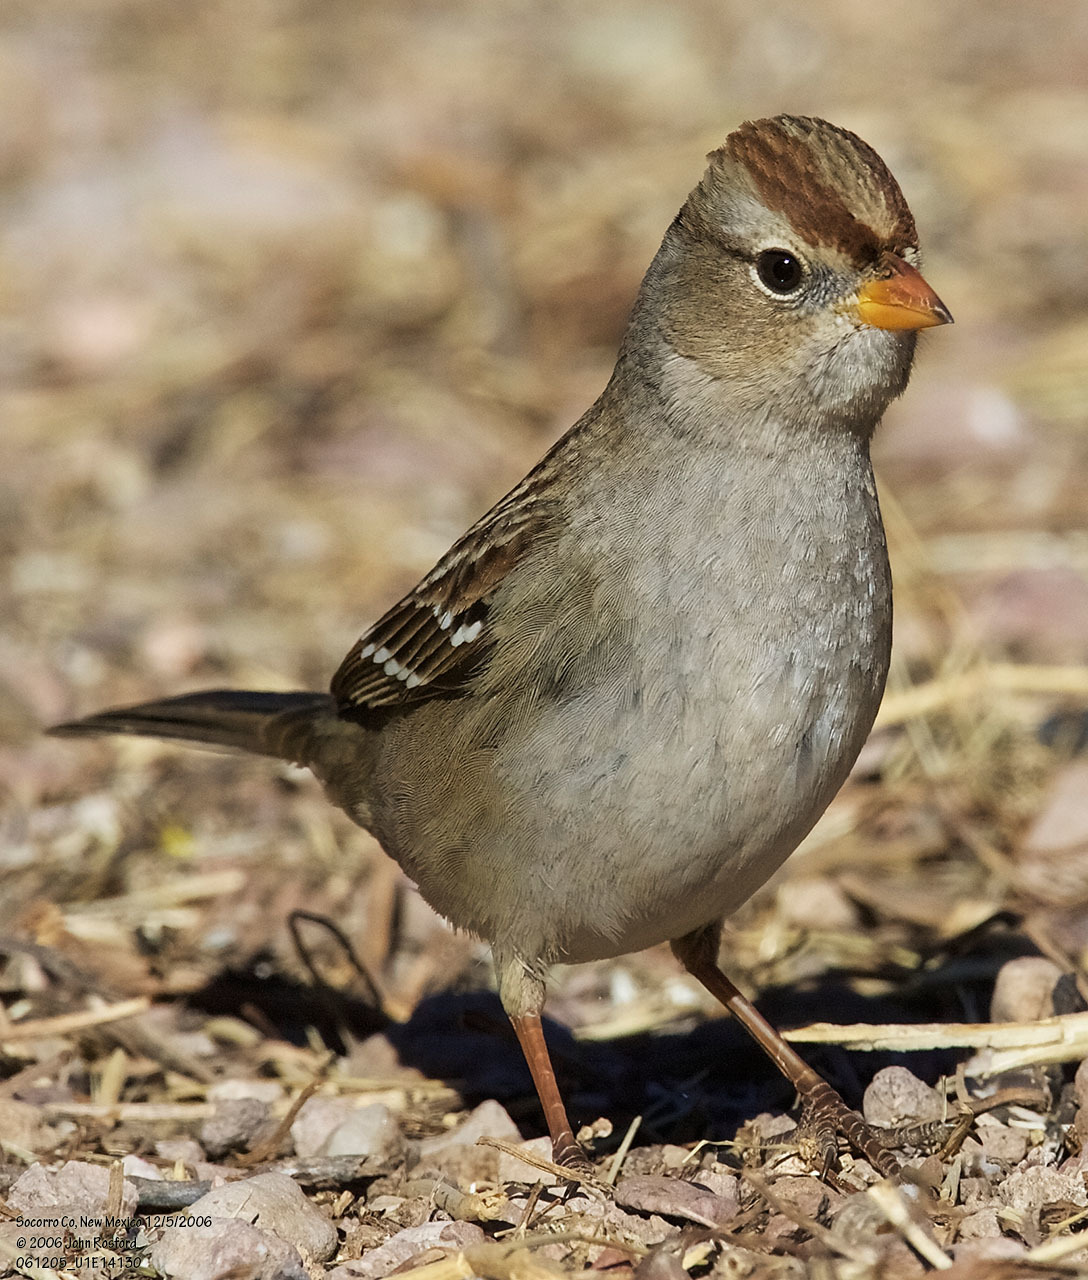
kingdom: Animalia
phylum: Chordata
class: Aves
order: Passeriformes
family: Passerellidae
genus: Zonotrichia
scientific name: Zonotrichia leucophrys
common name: White-crowned sparrow
